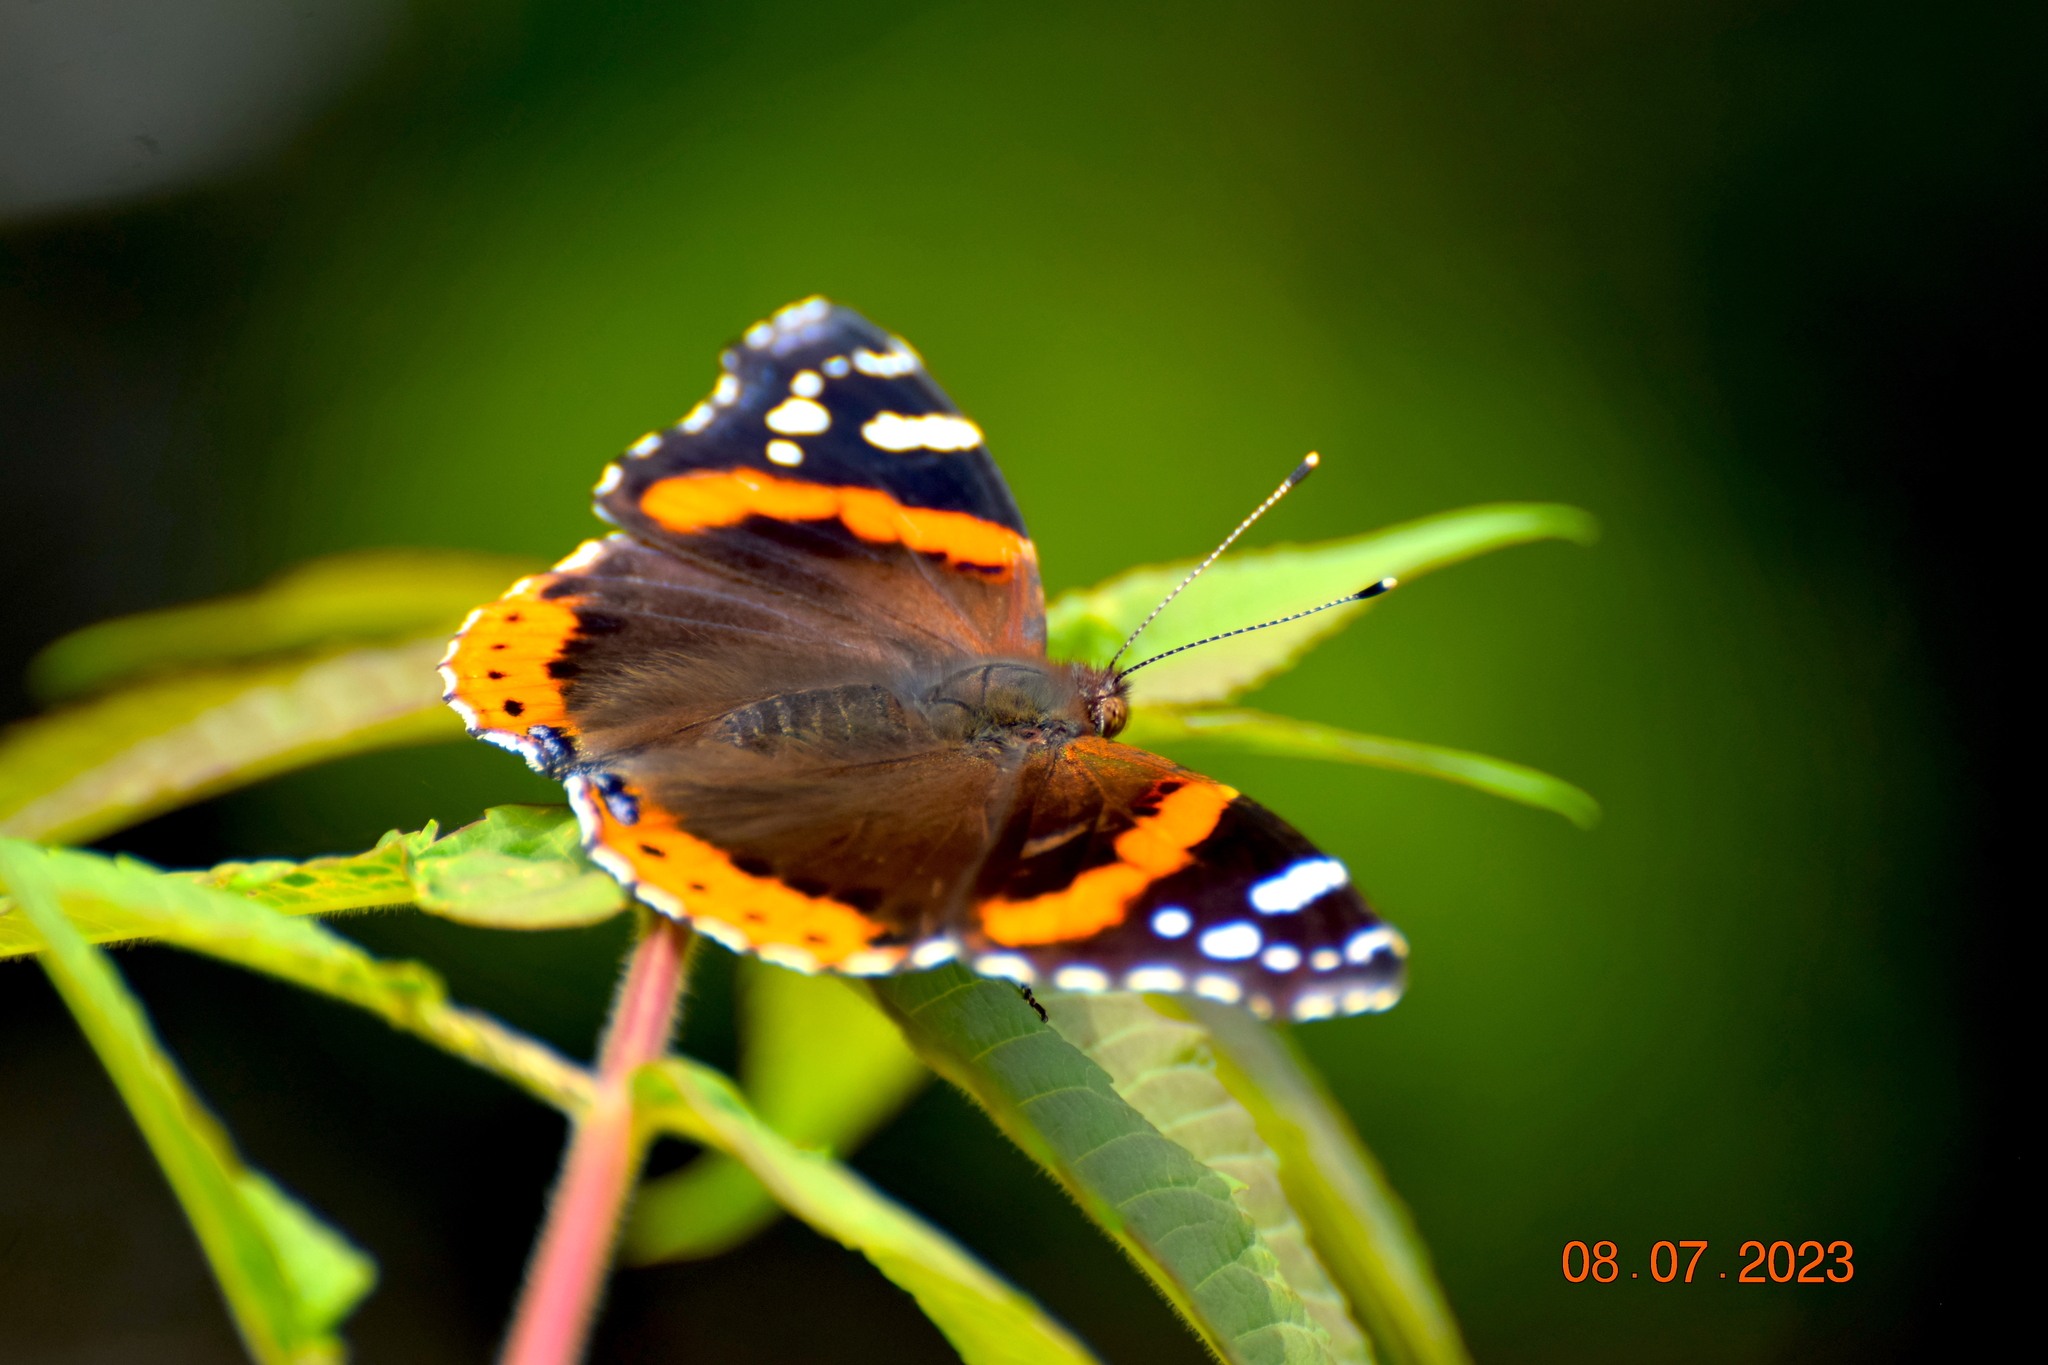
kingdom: Animalia
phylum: Arthropoda
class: Insecta
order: Lepidoptera
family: Nymphalidae
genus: Vanessa
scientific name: Vanessa atalanta
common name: Red admiral
